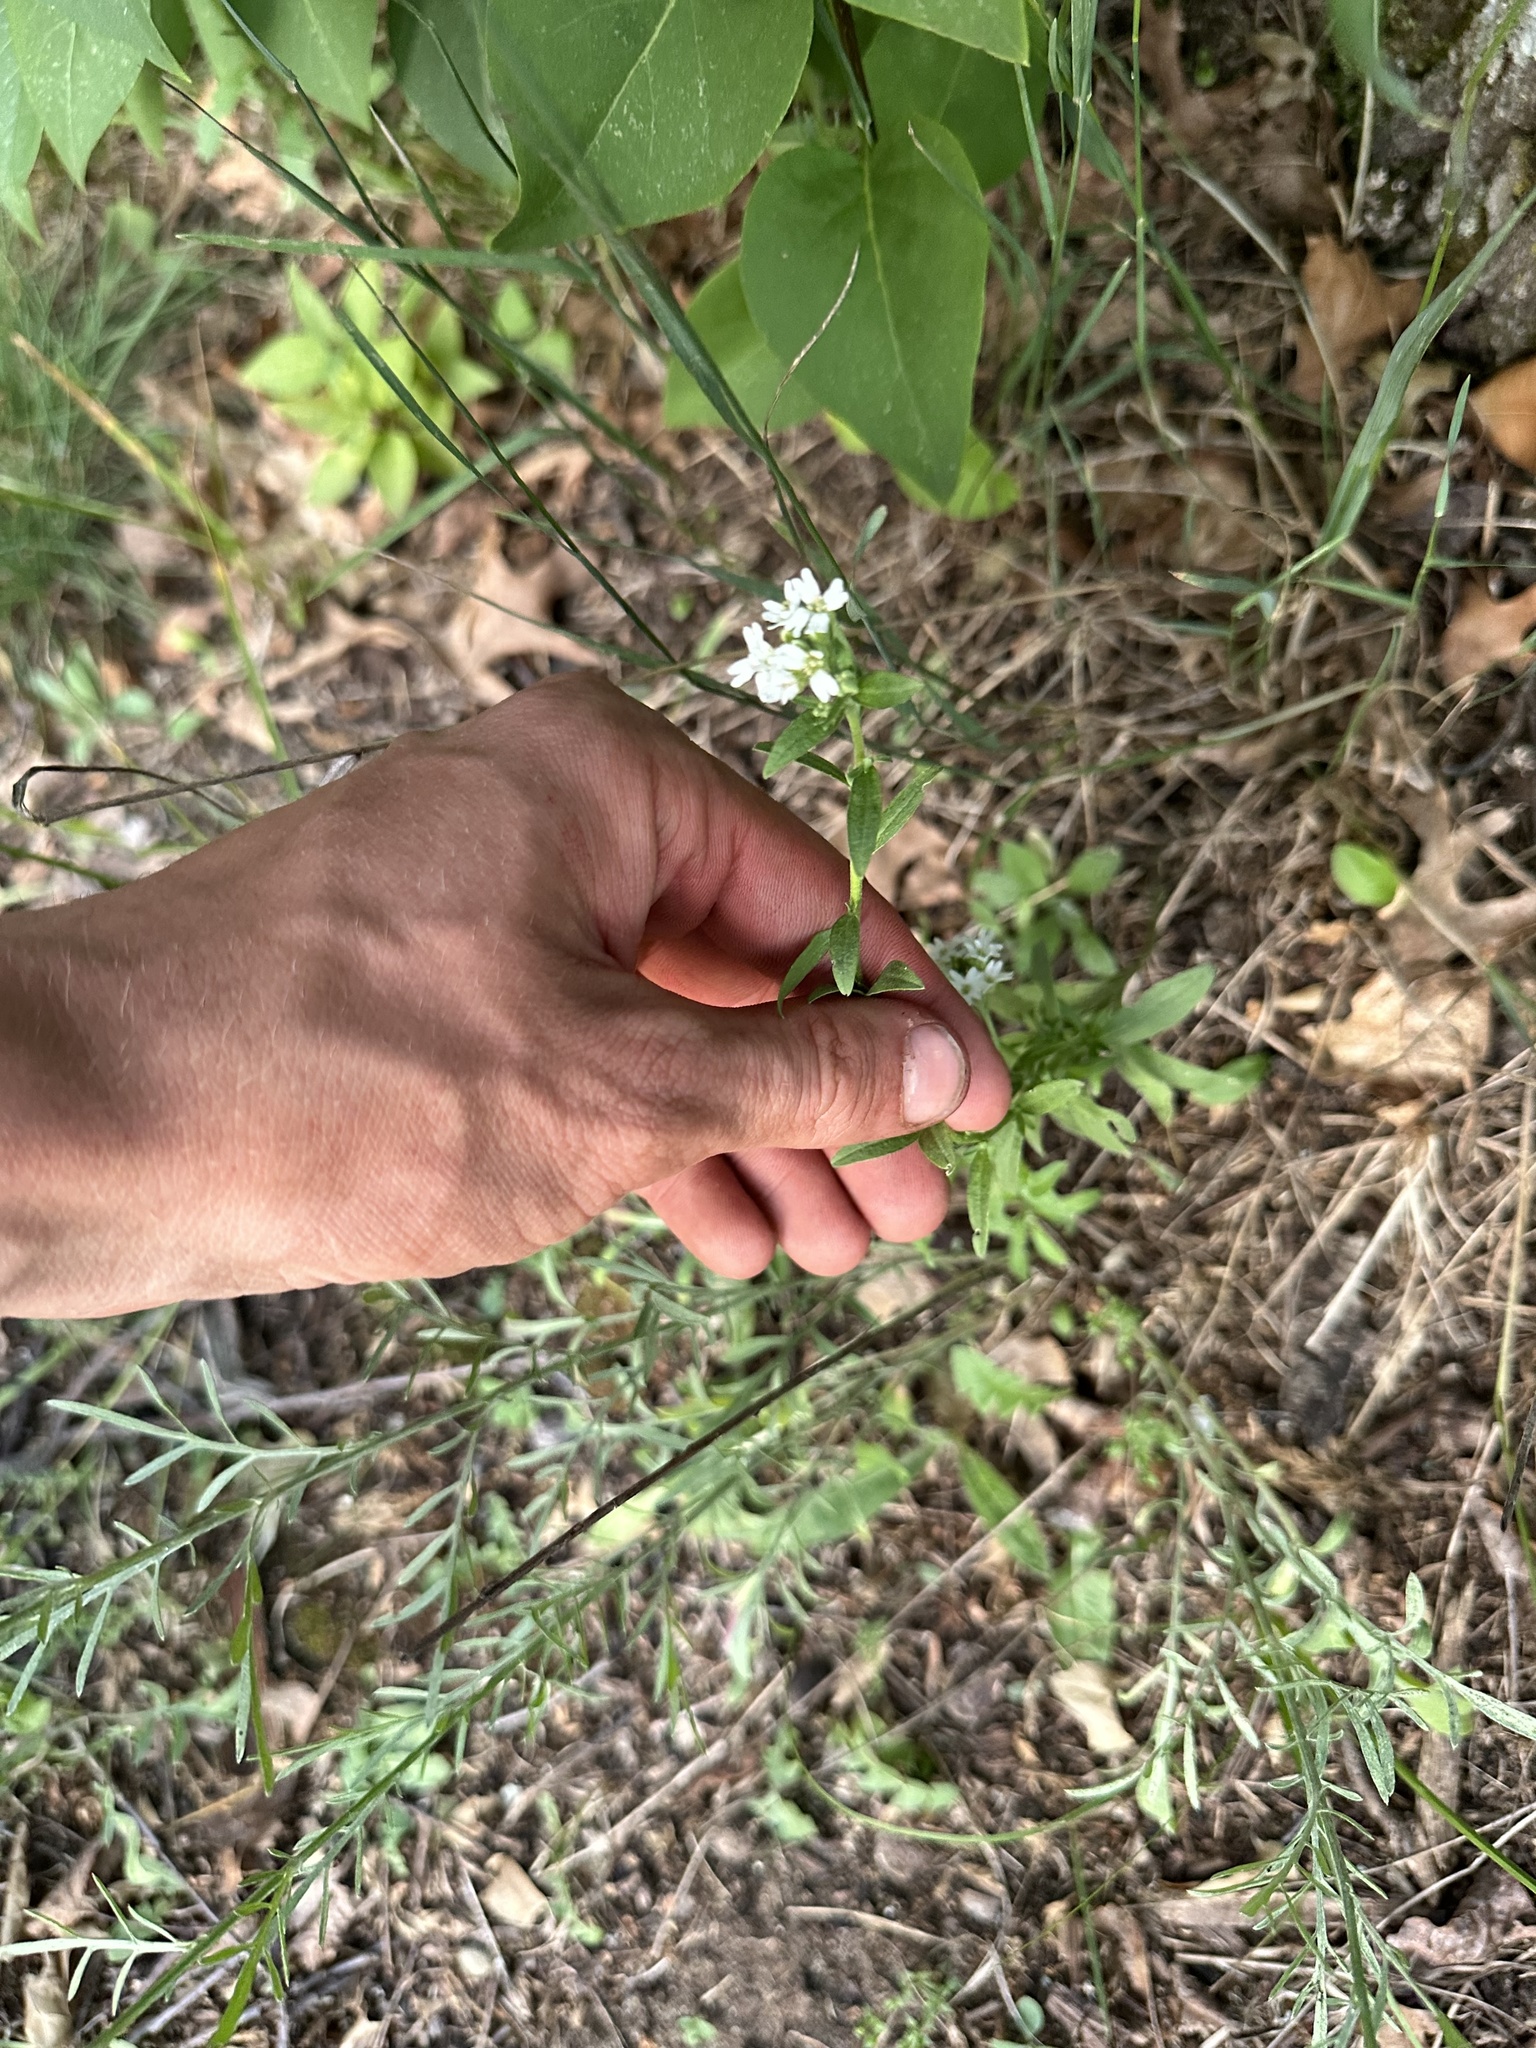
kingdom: Plantae
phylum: Tracheophyta
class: Magnoliopsida
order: Brassicales
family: Brassicaceae
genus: Berteroa
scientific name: Berteroa incana
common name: Hoary alison
